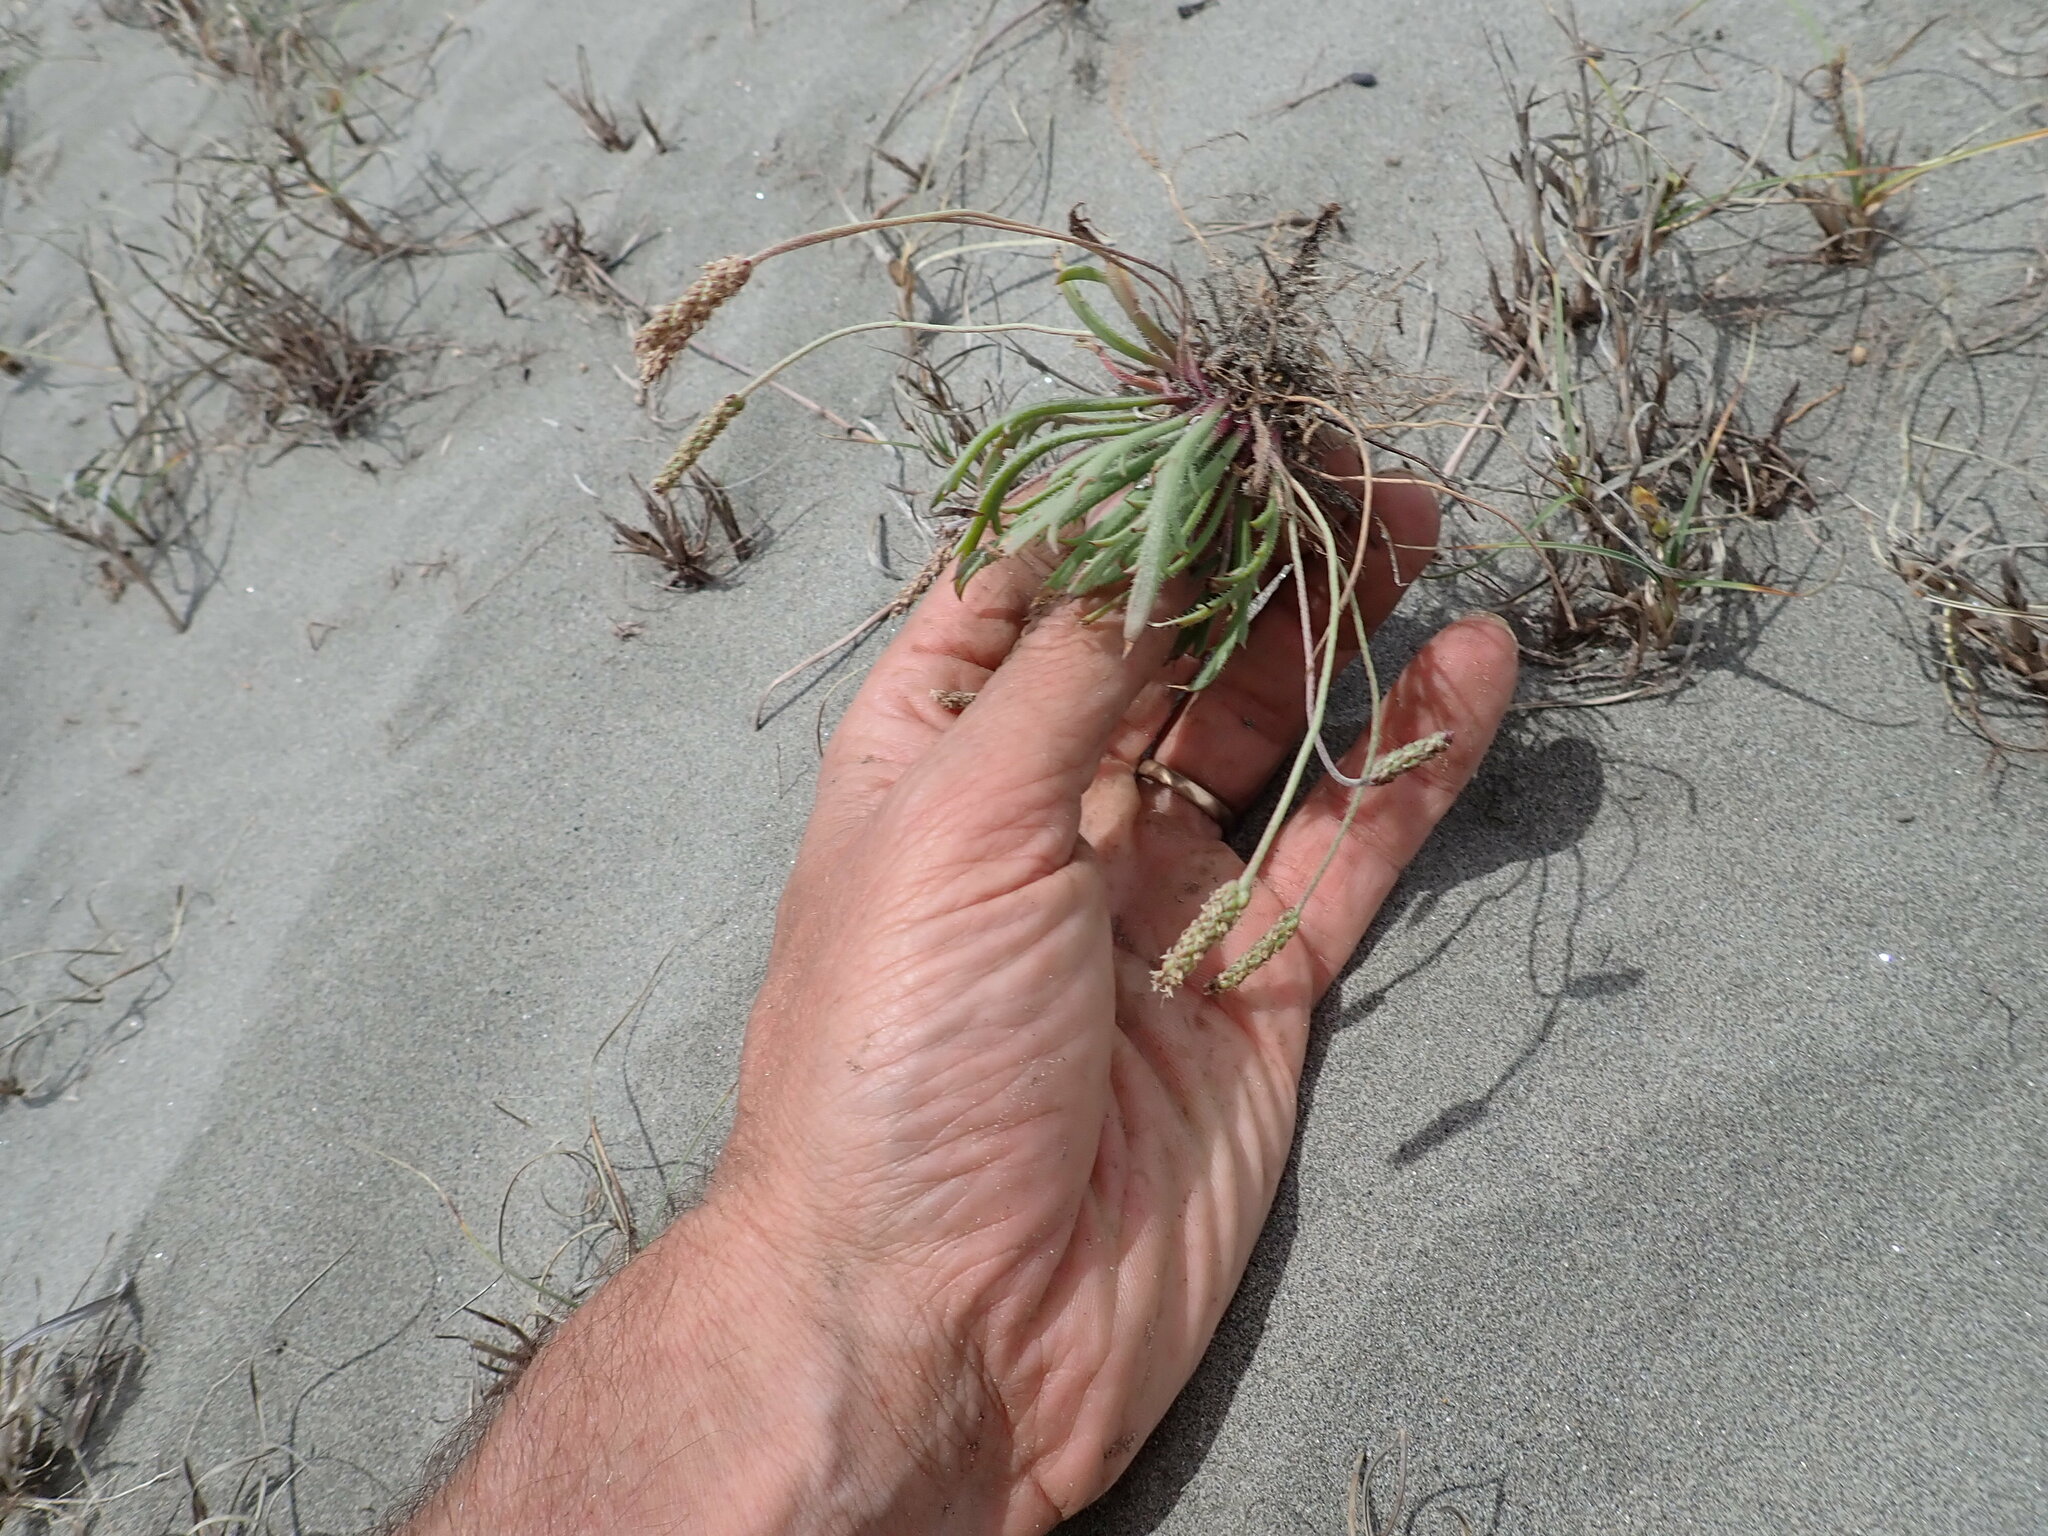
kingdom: Plantae
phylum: Tracheophyta
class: Magnoliopsida
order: Lamiales
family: Plantaginaceae
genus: Plantago
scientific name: Plantago coronopus
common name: Buck's-horn plantain
